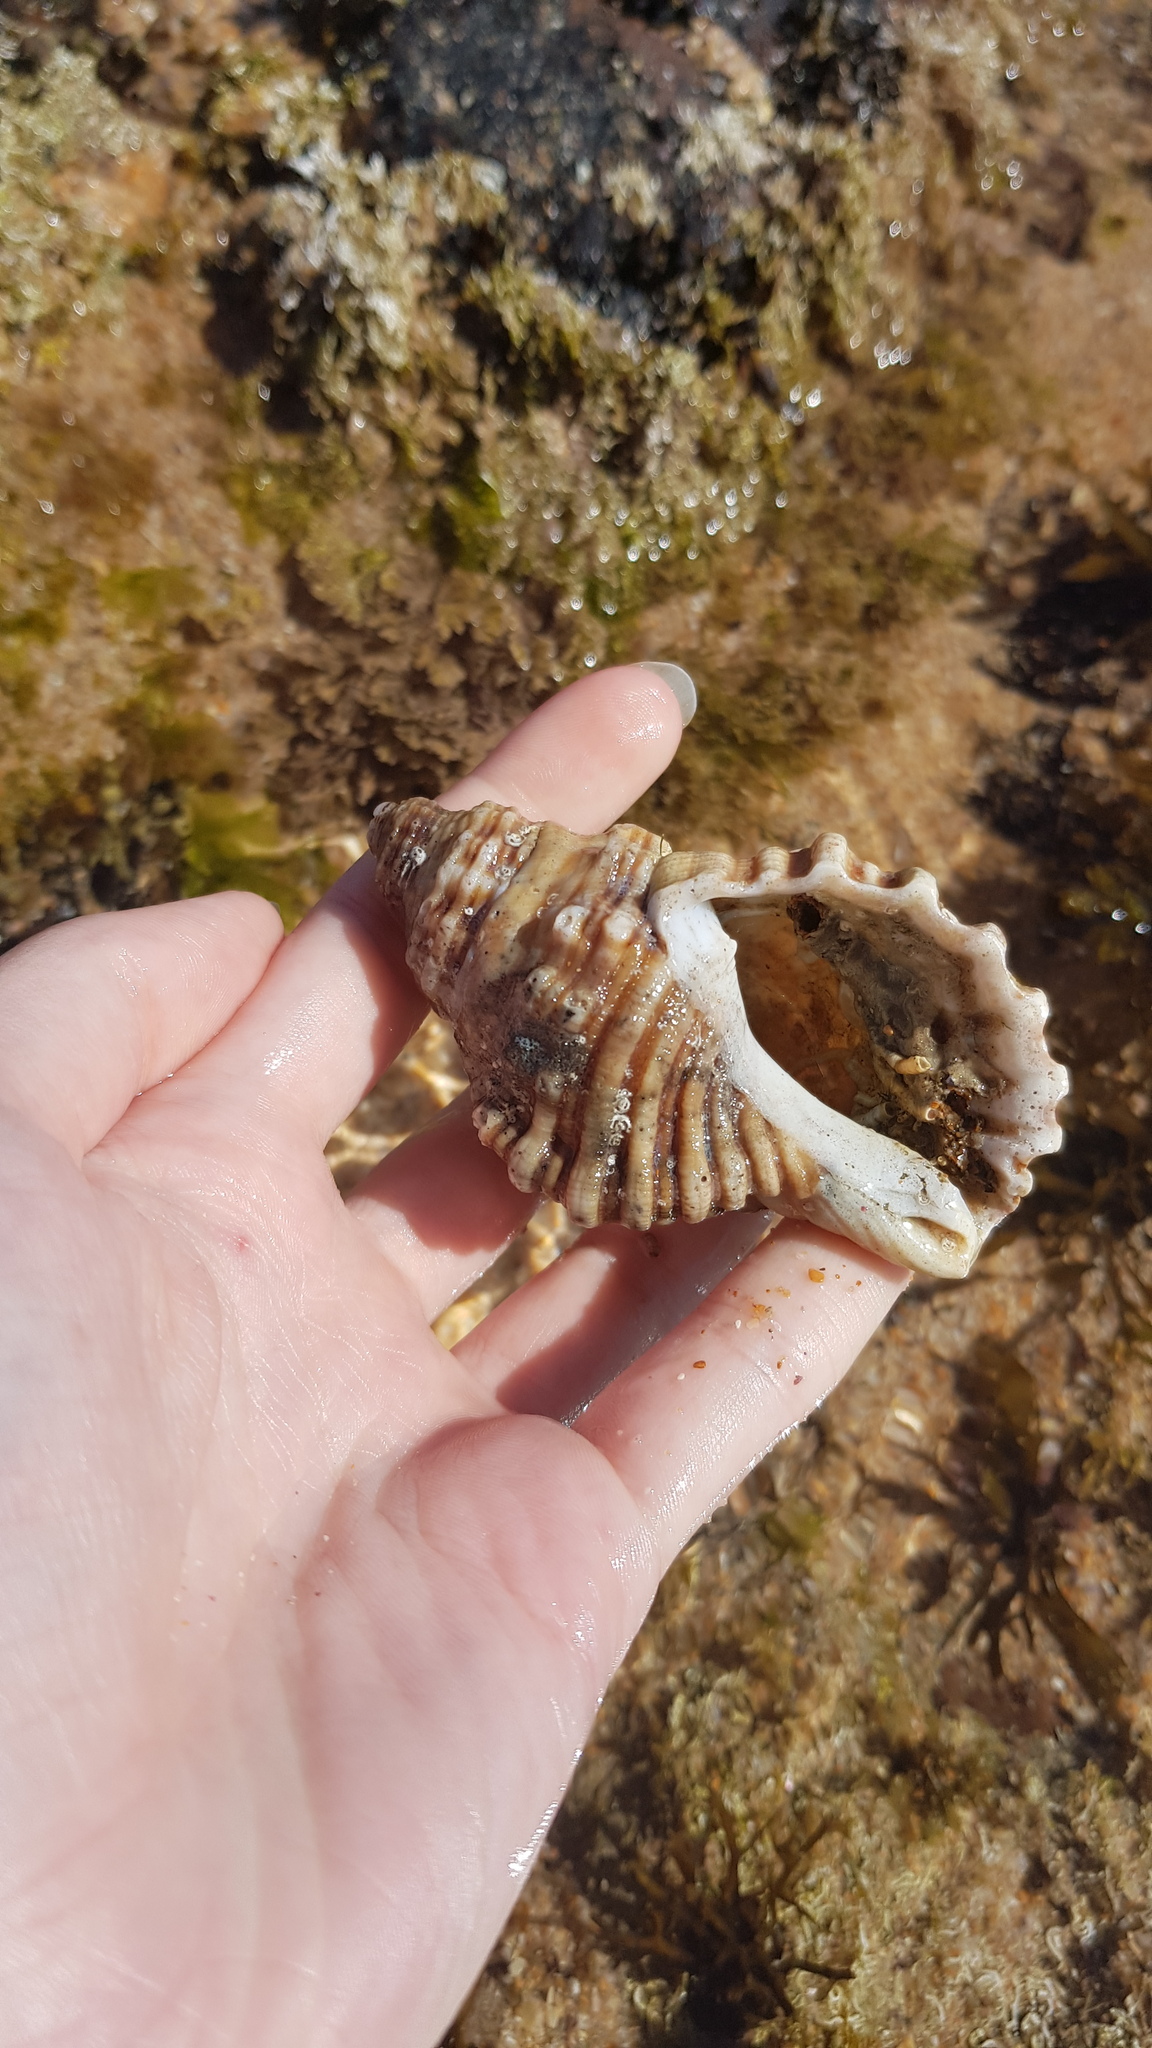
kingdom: Animalia
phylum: Mollusca
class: Gastropoda
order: Littorinimorpha
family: Cymatiidae
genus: Cabestana
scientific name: Cabestana spengleri
